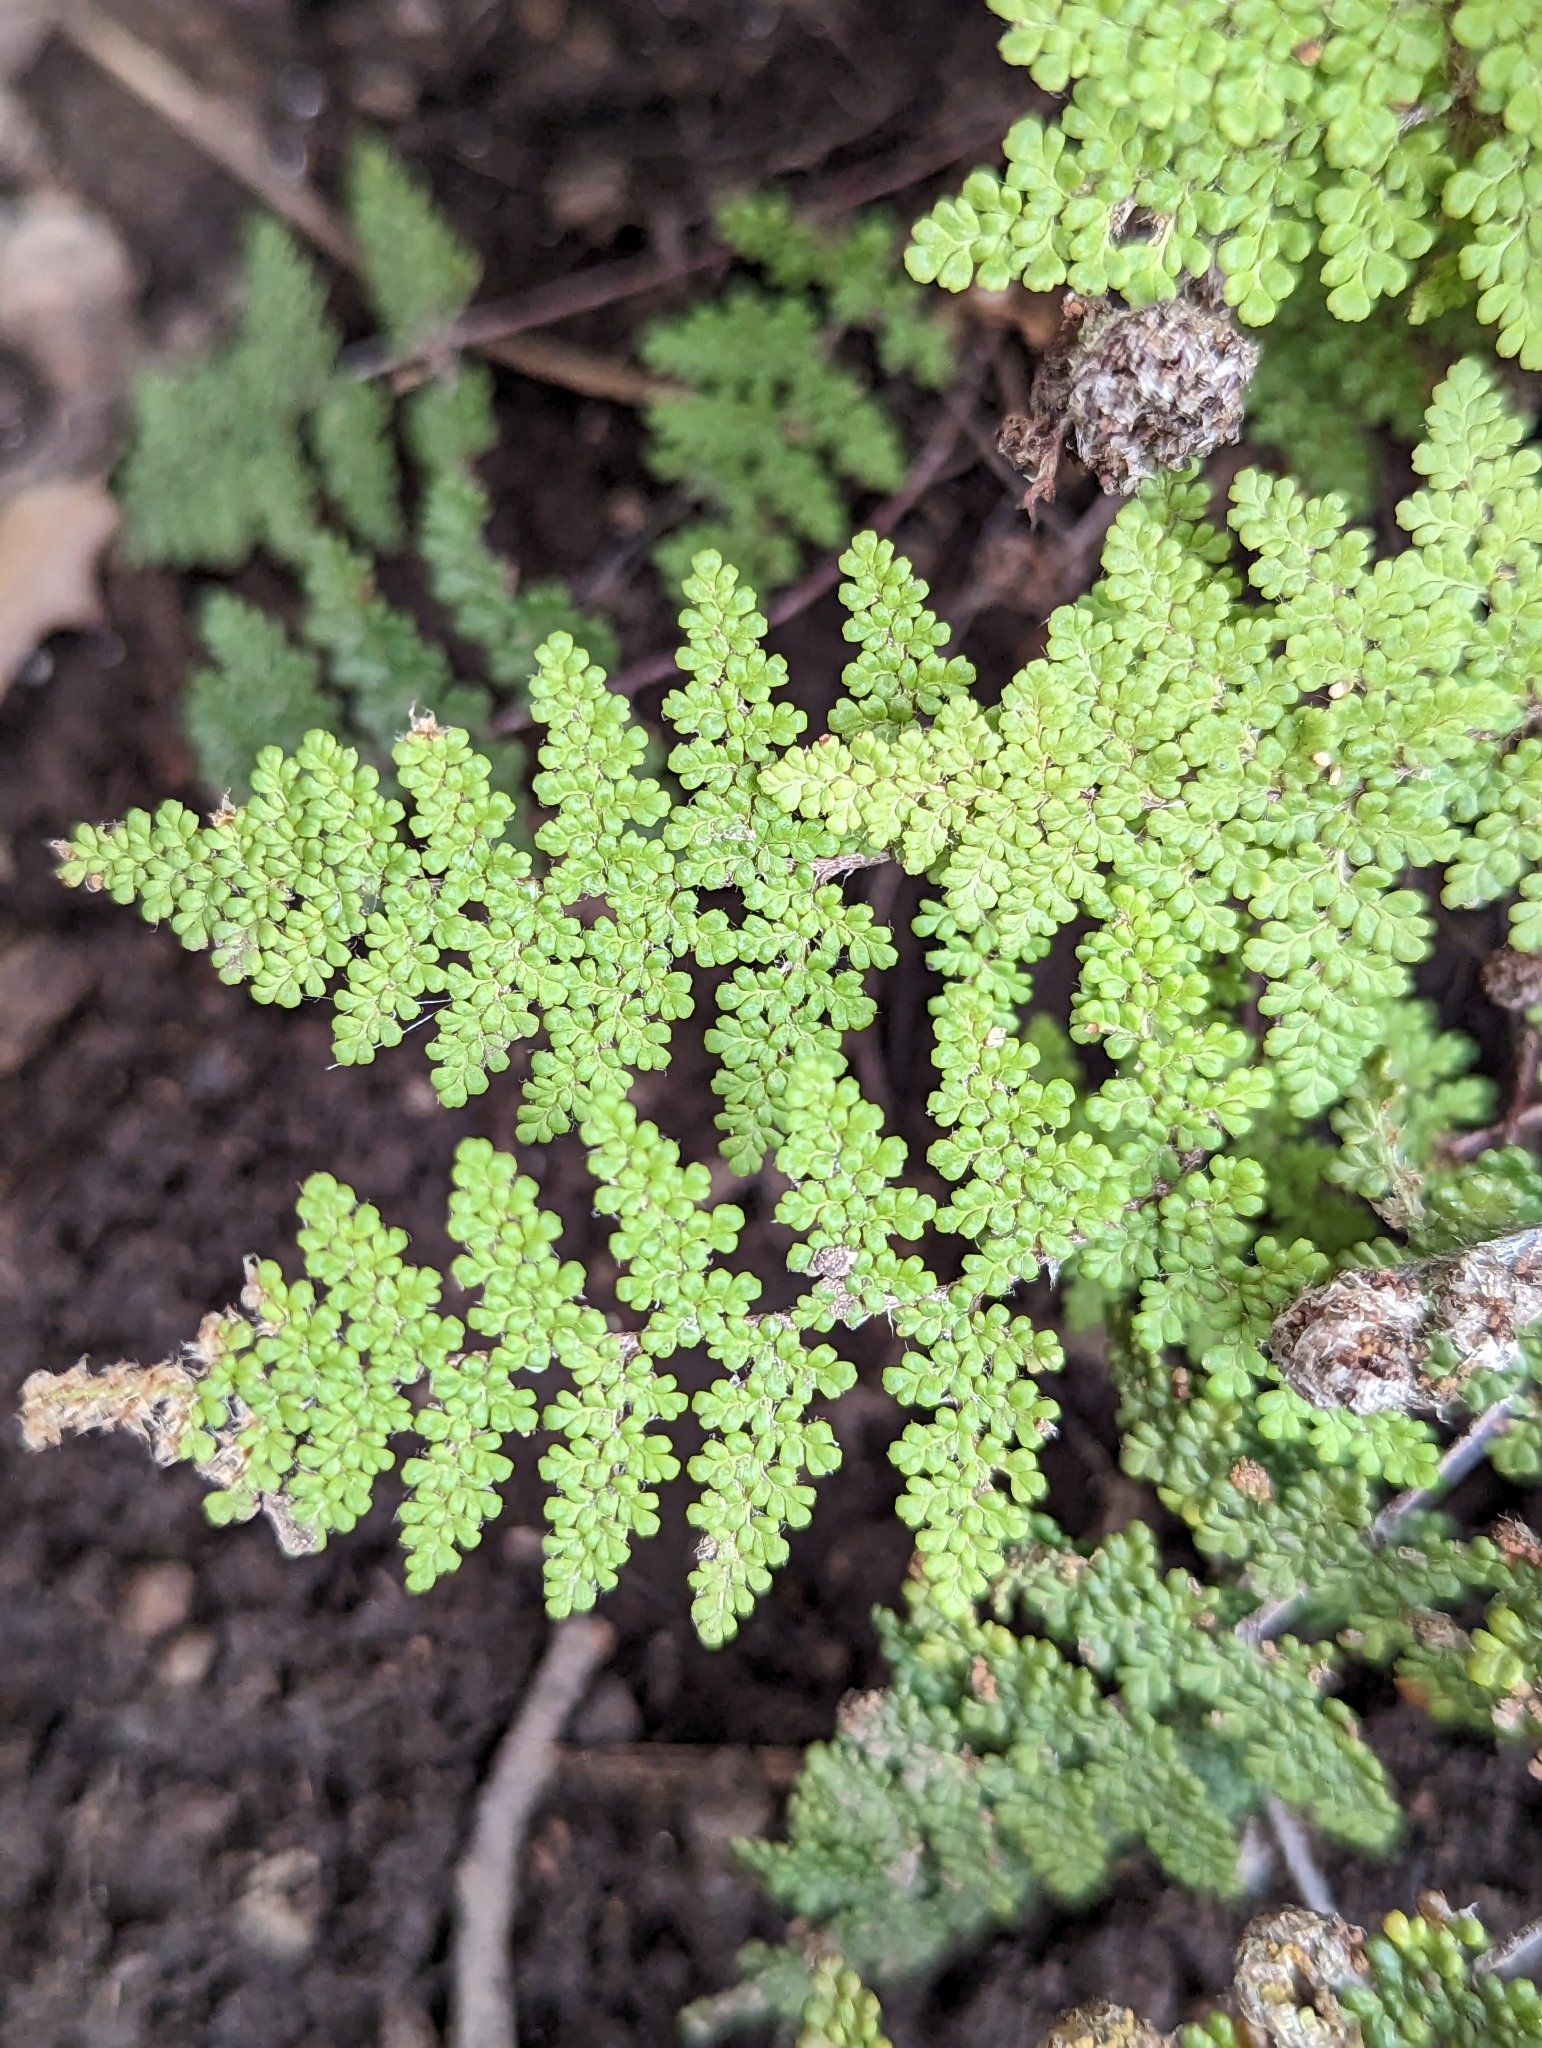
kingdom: Plantae
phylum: Tracheophyta
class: Polypodiopsida
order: Polypodiales
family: Pteridaceae
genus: Myriopteris
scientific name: Myriopteris fendleri
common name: Fendler's lip fern
